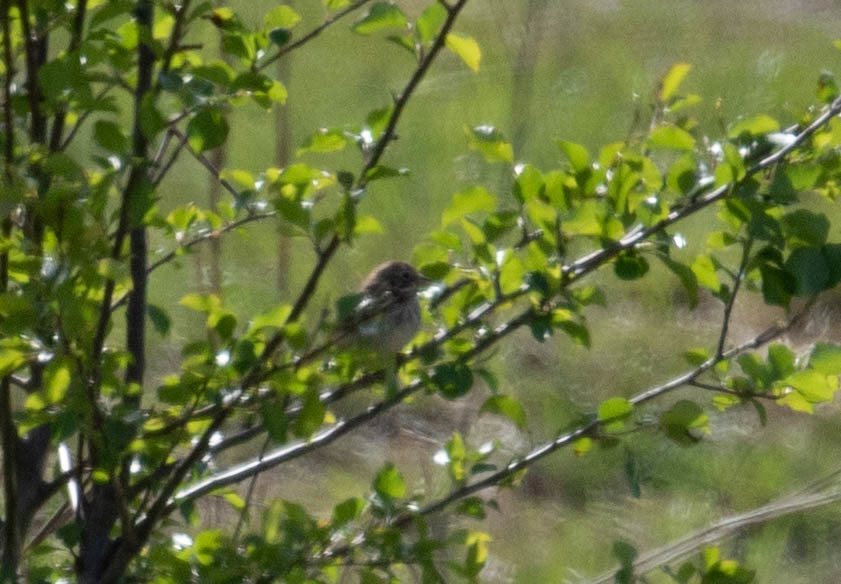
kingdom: Animalia
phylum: Chordata
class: Aves
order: Passeriformes
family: Passerellidae
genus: Pooecetes
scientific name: Pooecetes gramineus
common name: Vesper sparrow
